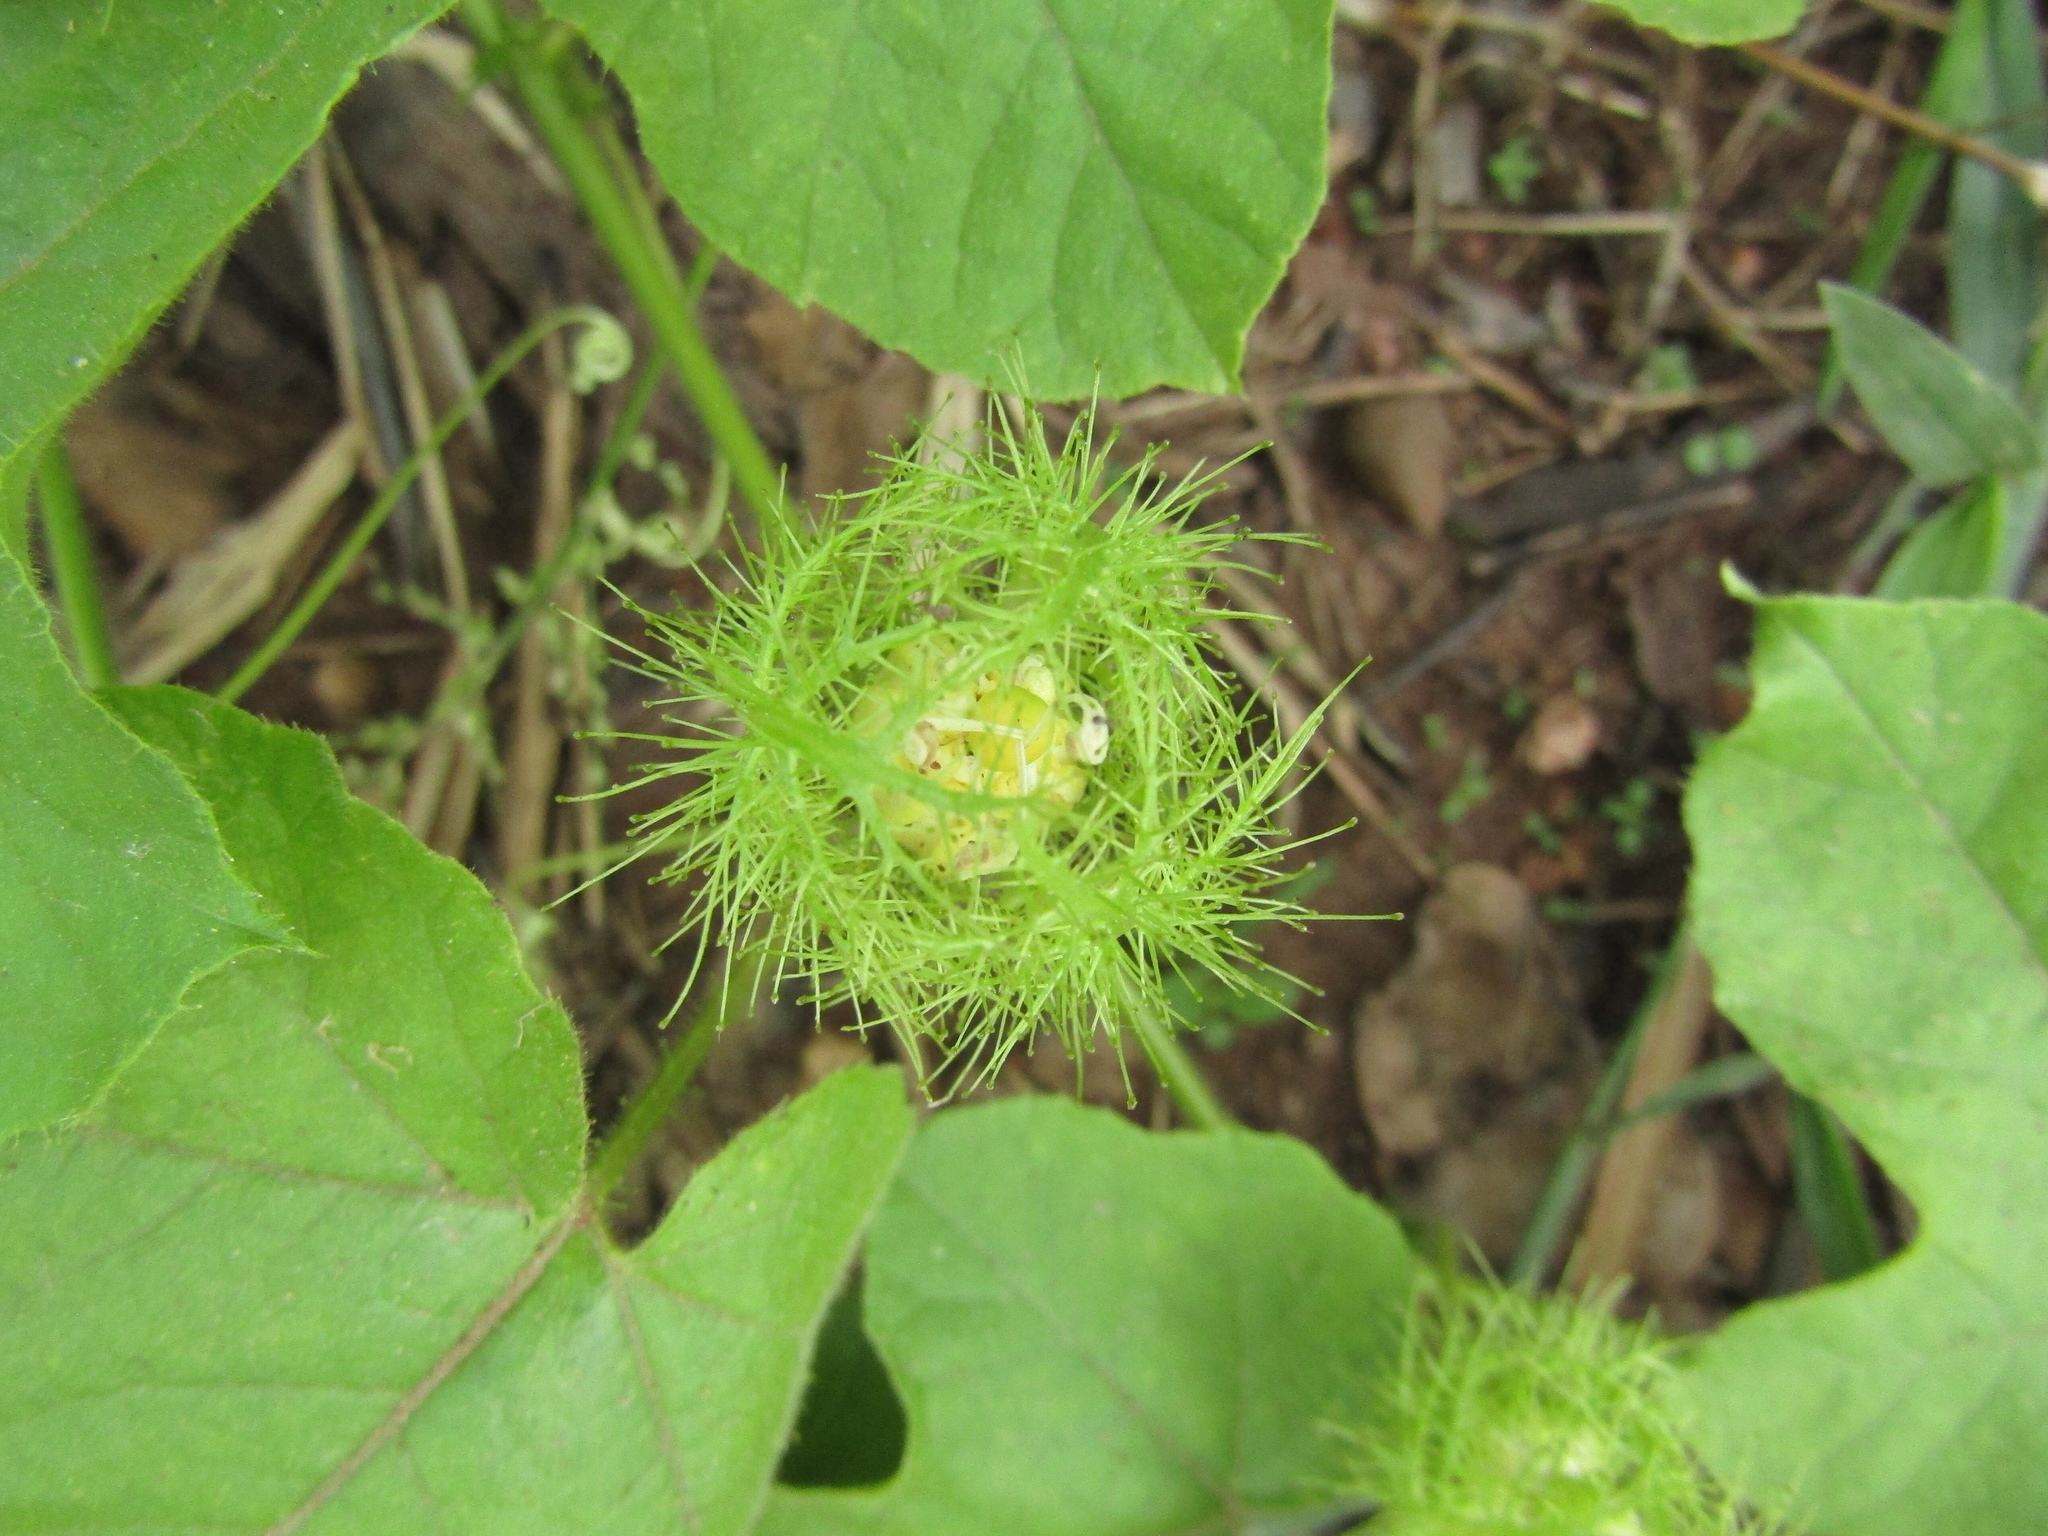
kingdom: Plantae
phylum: Tracheophyta
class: Magnoliopsida
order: Malpighiales
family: Passifloraceae
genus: Passiflora
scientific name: Passiflora vesicaria
